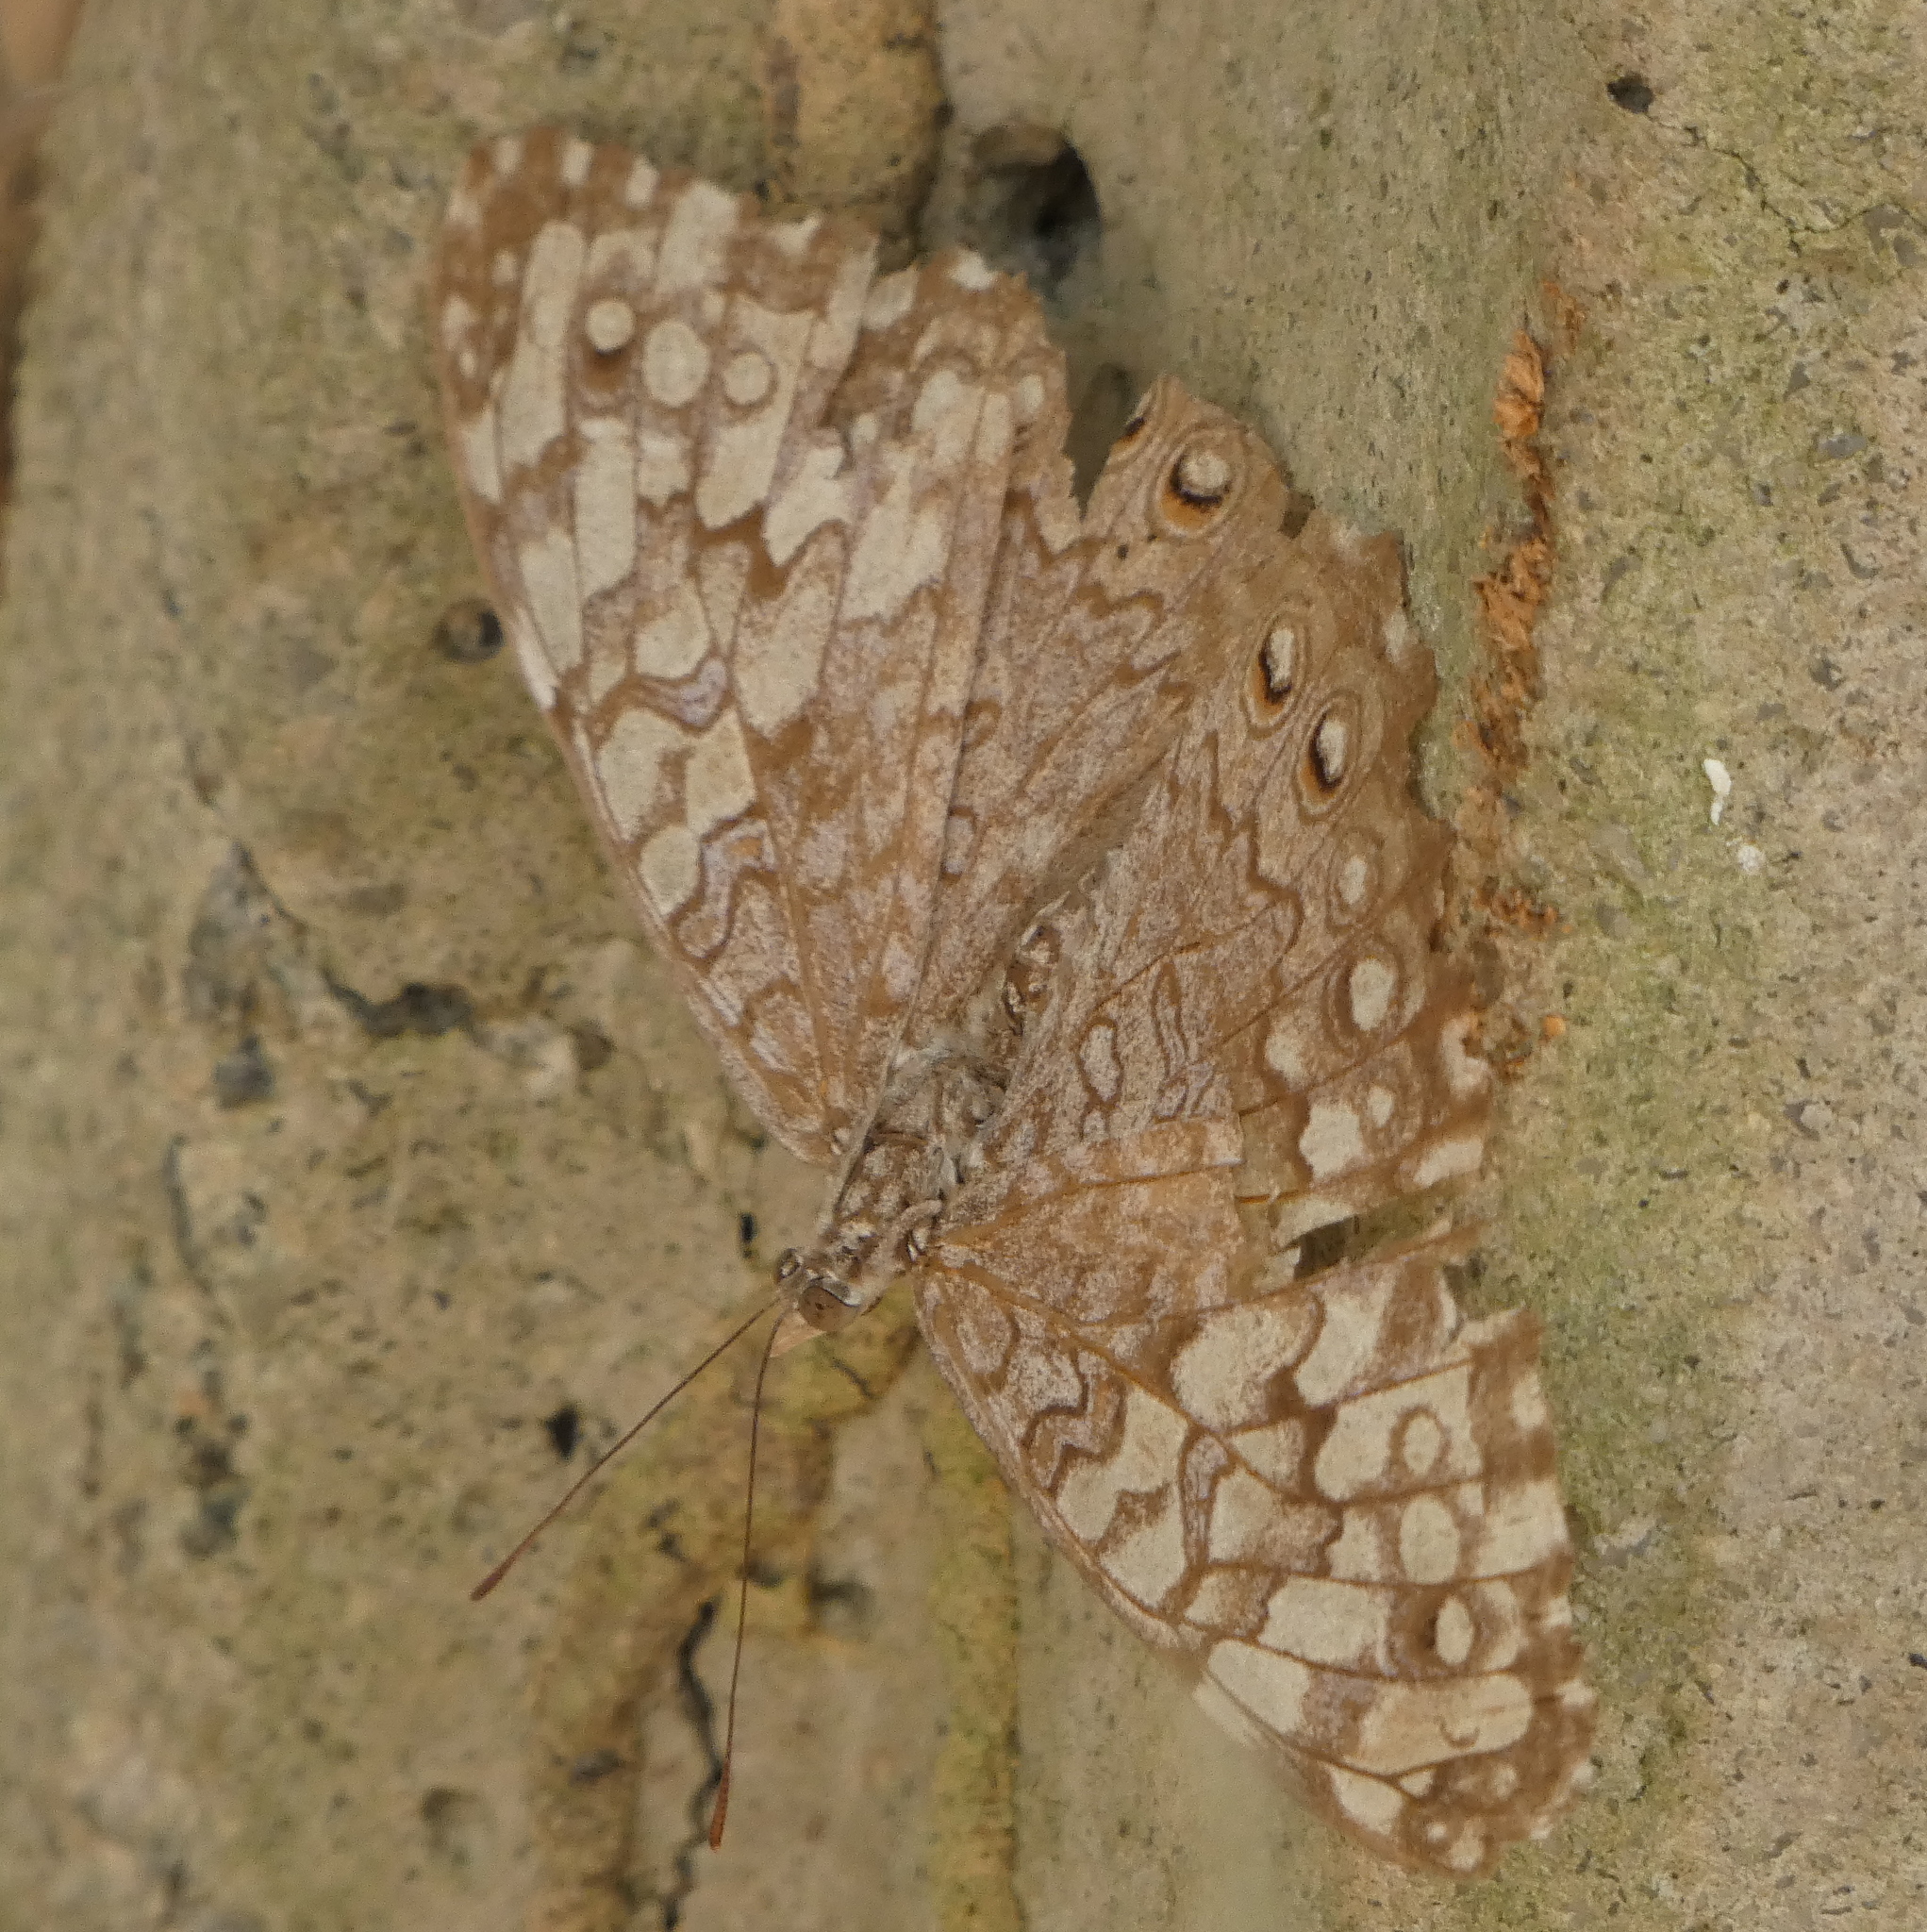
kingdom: Animalia
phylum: Arthropoda
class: Insecta
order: Lepidoptera
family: Nymphalidae
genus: Hamadryas
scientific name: Hamadryas februa
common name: Gray cracker
